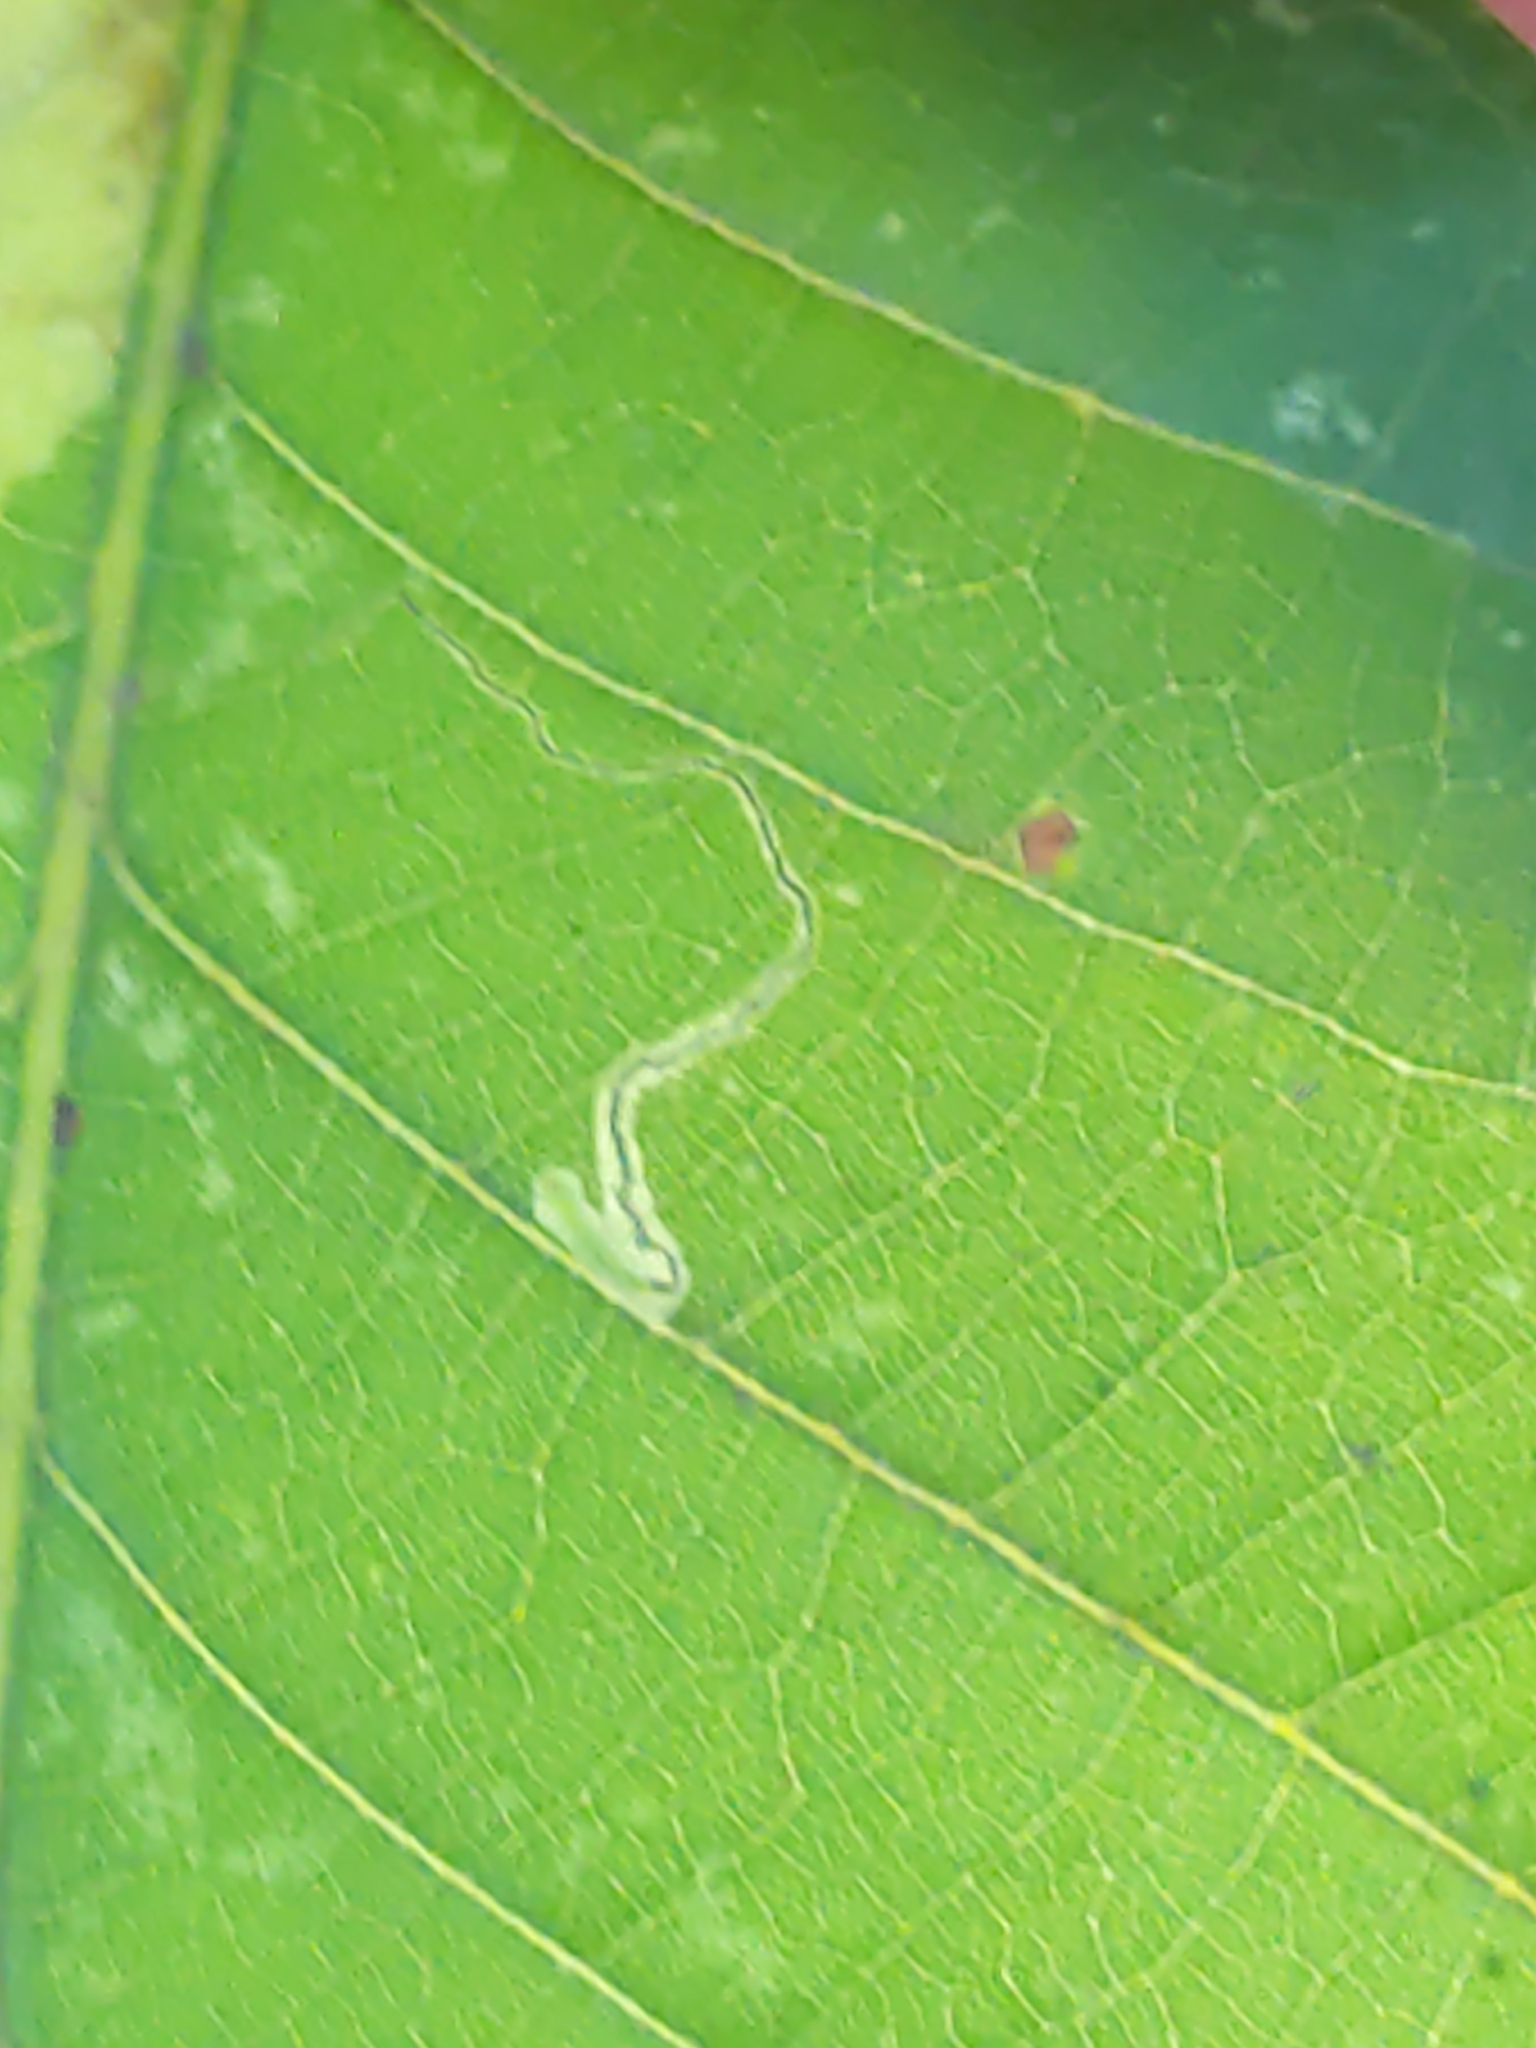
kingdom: Animalia
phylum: Arthropoda
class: Insecta
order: Lepidoptera
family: Nepticulidae
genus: Stigmella
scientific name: Stigmella saginella
